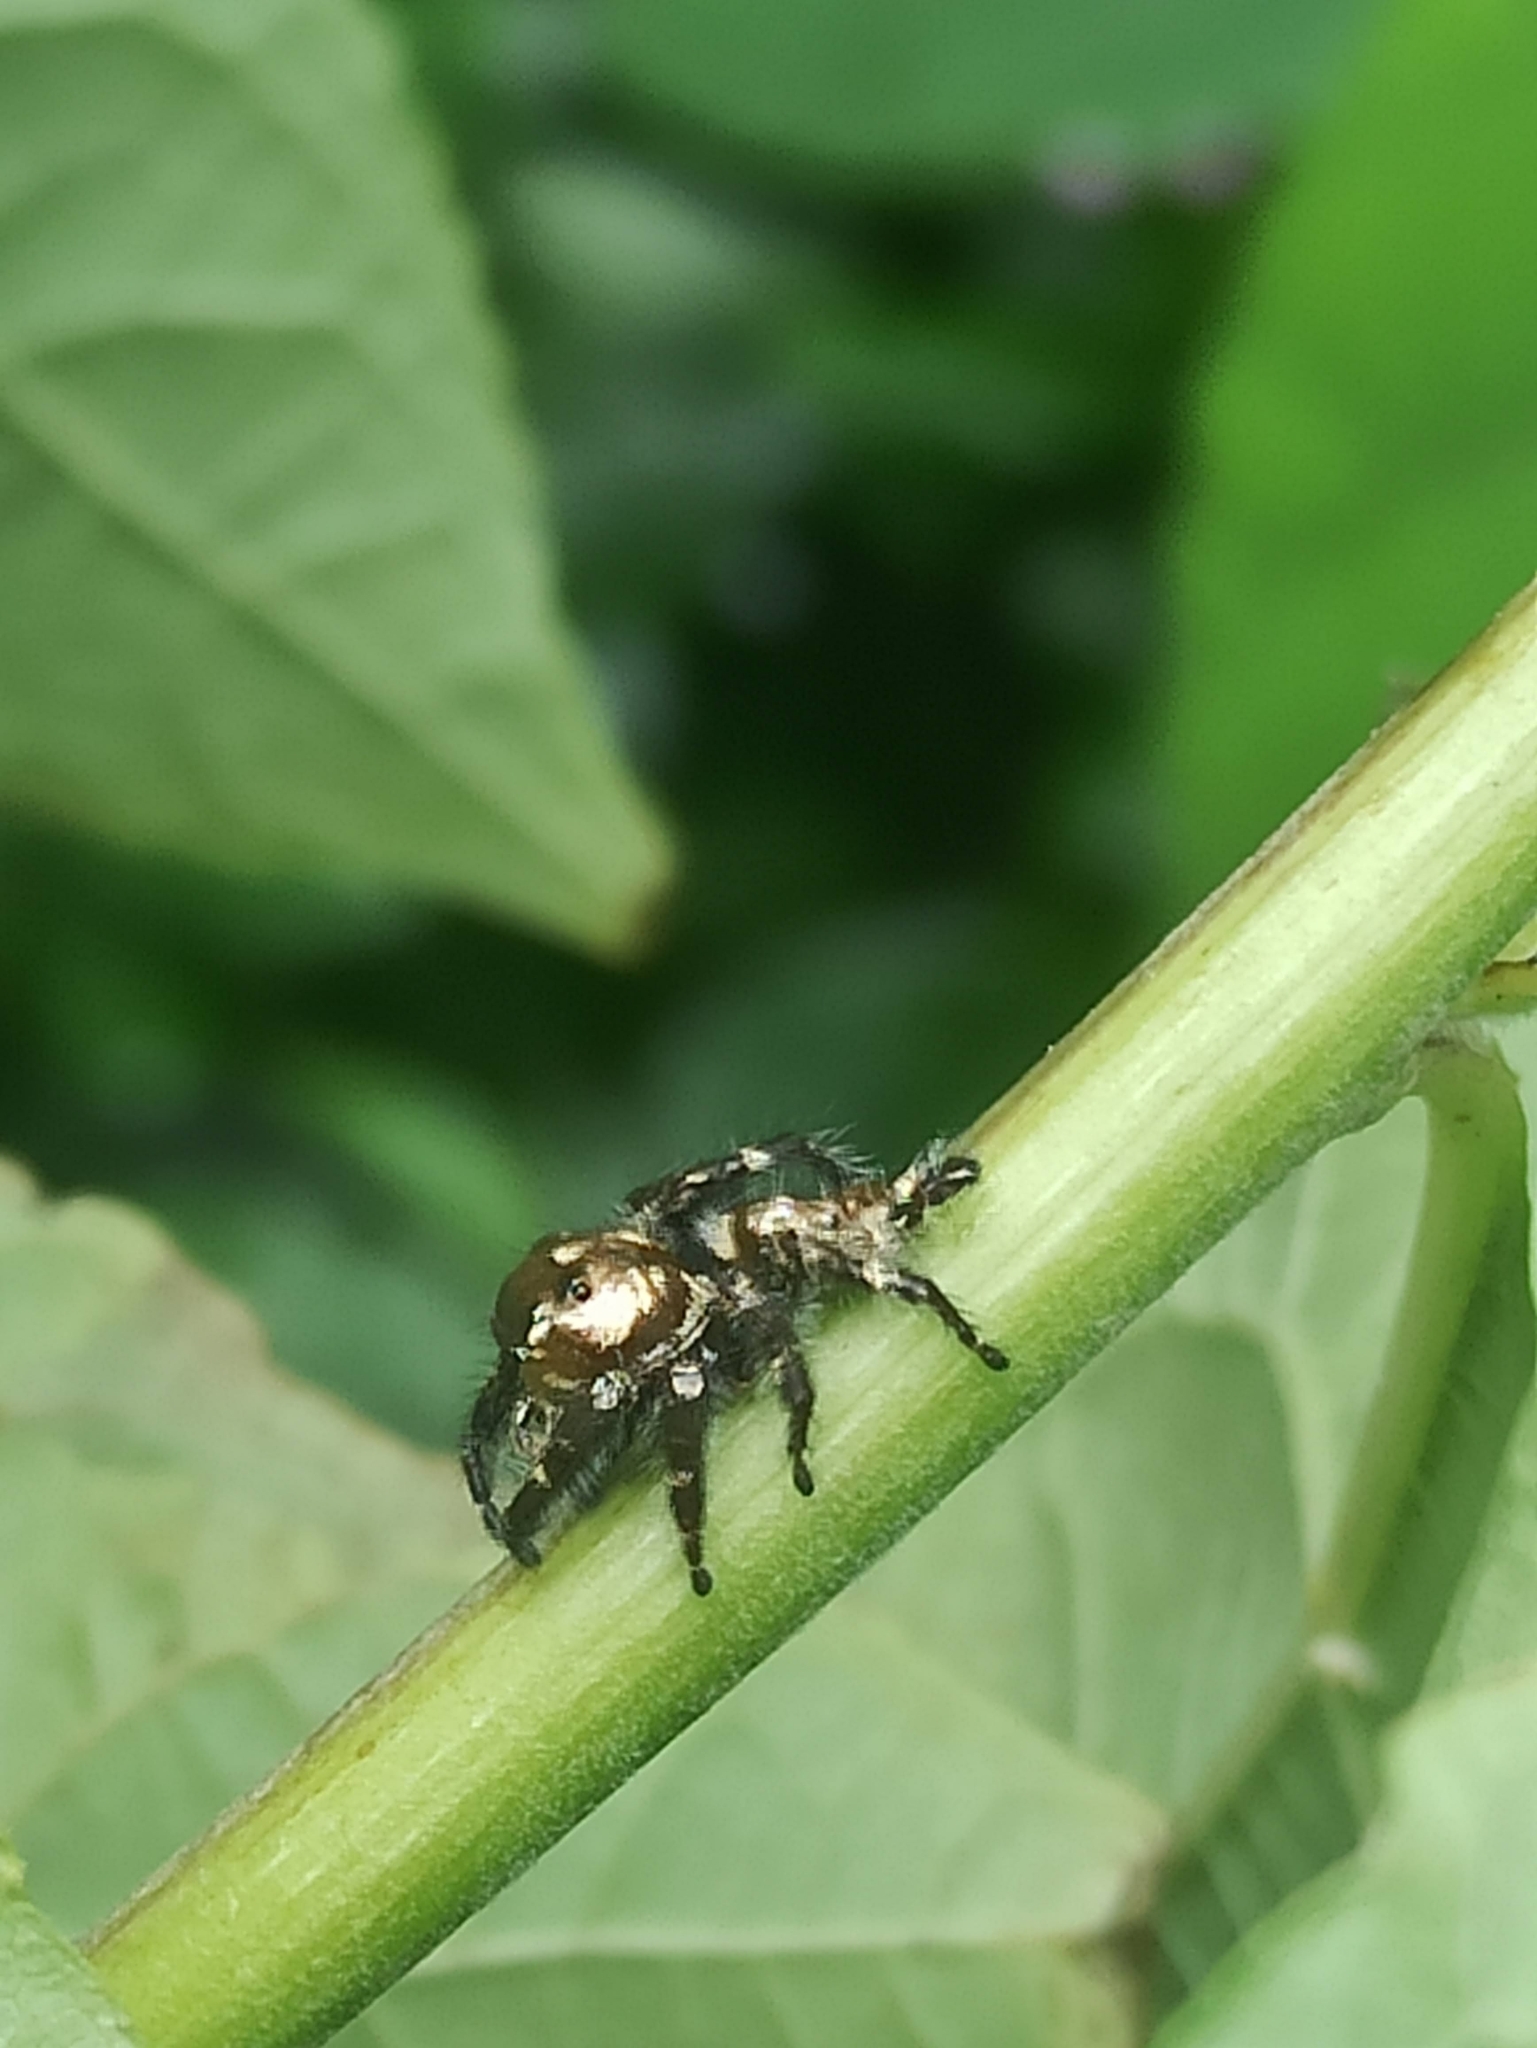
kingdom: Animalia
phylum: Arthropoda
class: Arachnida
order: Araneae
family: Salticidae
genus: Hyllus
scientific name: Hyllus semicupreus
